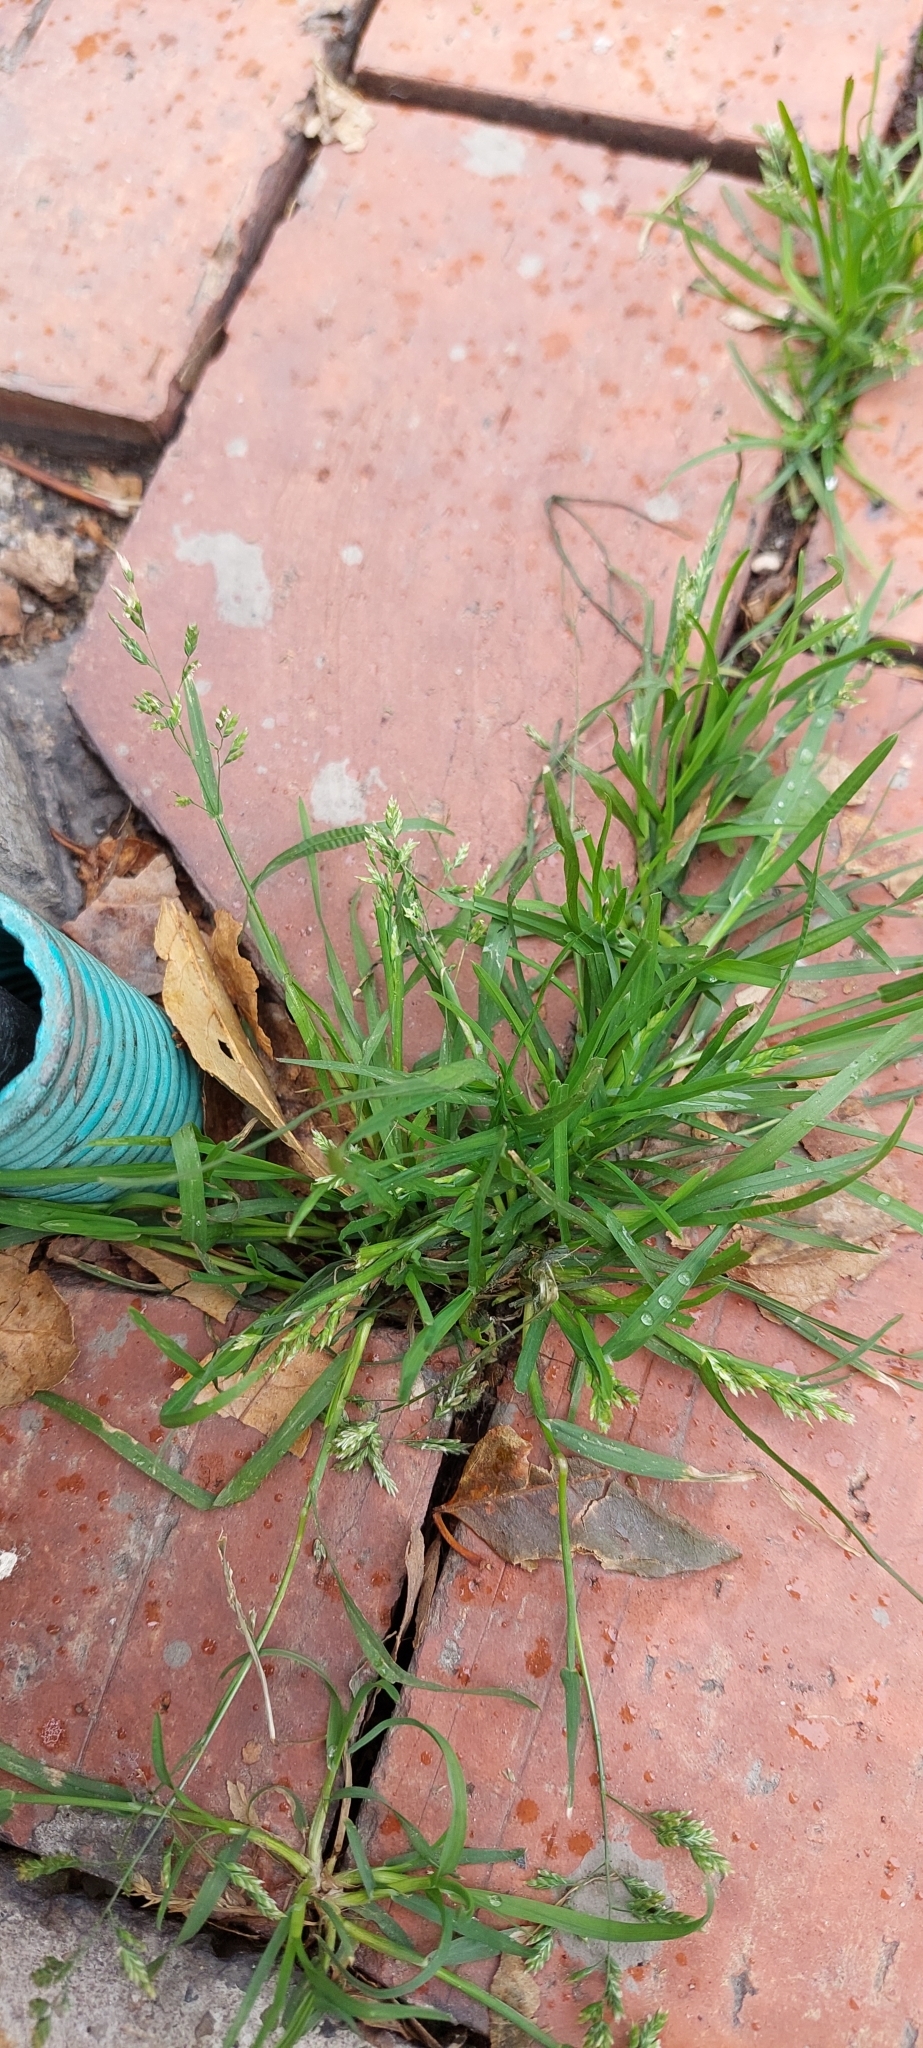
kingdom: Plantae
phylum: Tracheophyta
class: Liliopsida
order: Poales
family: Poaceae
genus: Poa
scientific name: Poa annua
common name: Annual bluegrass
